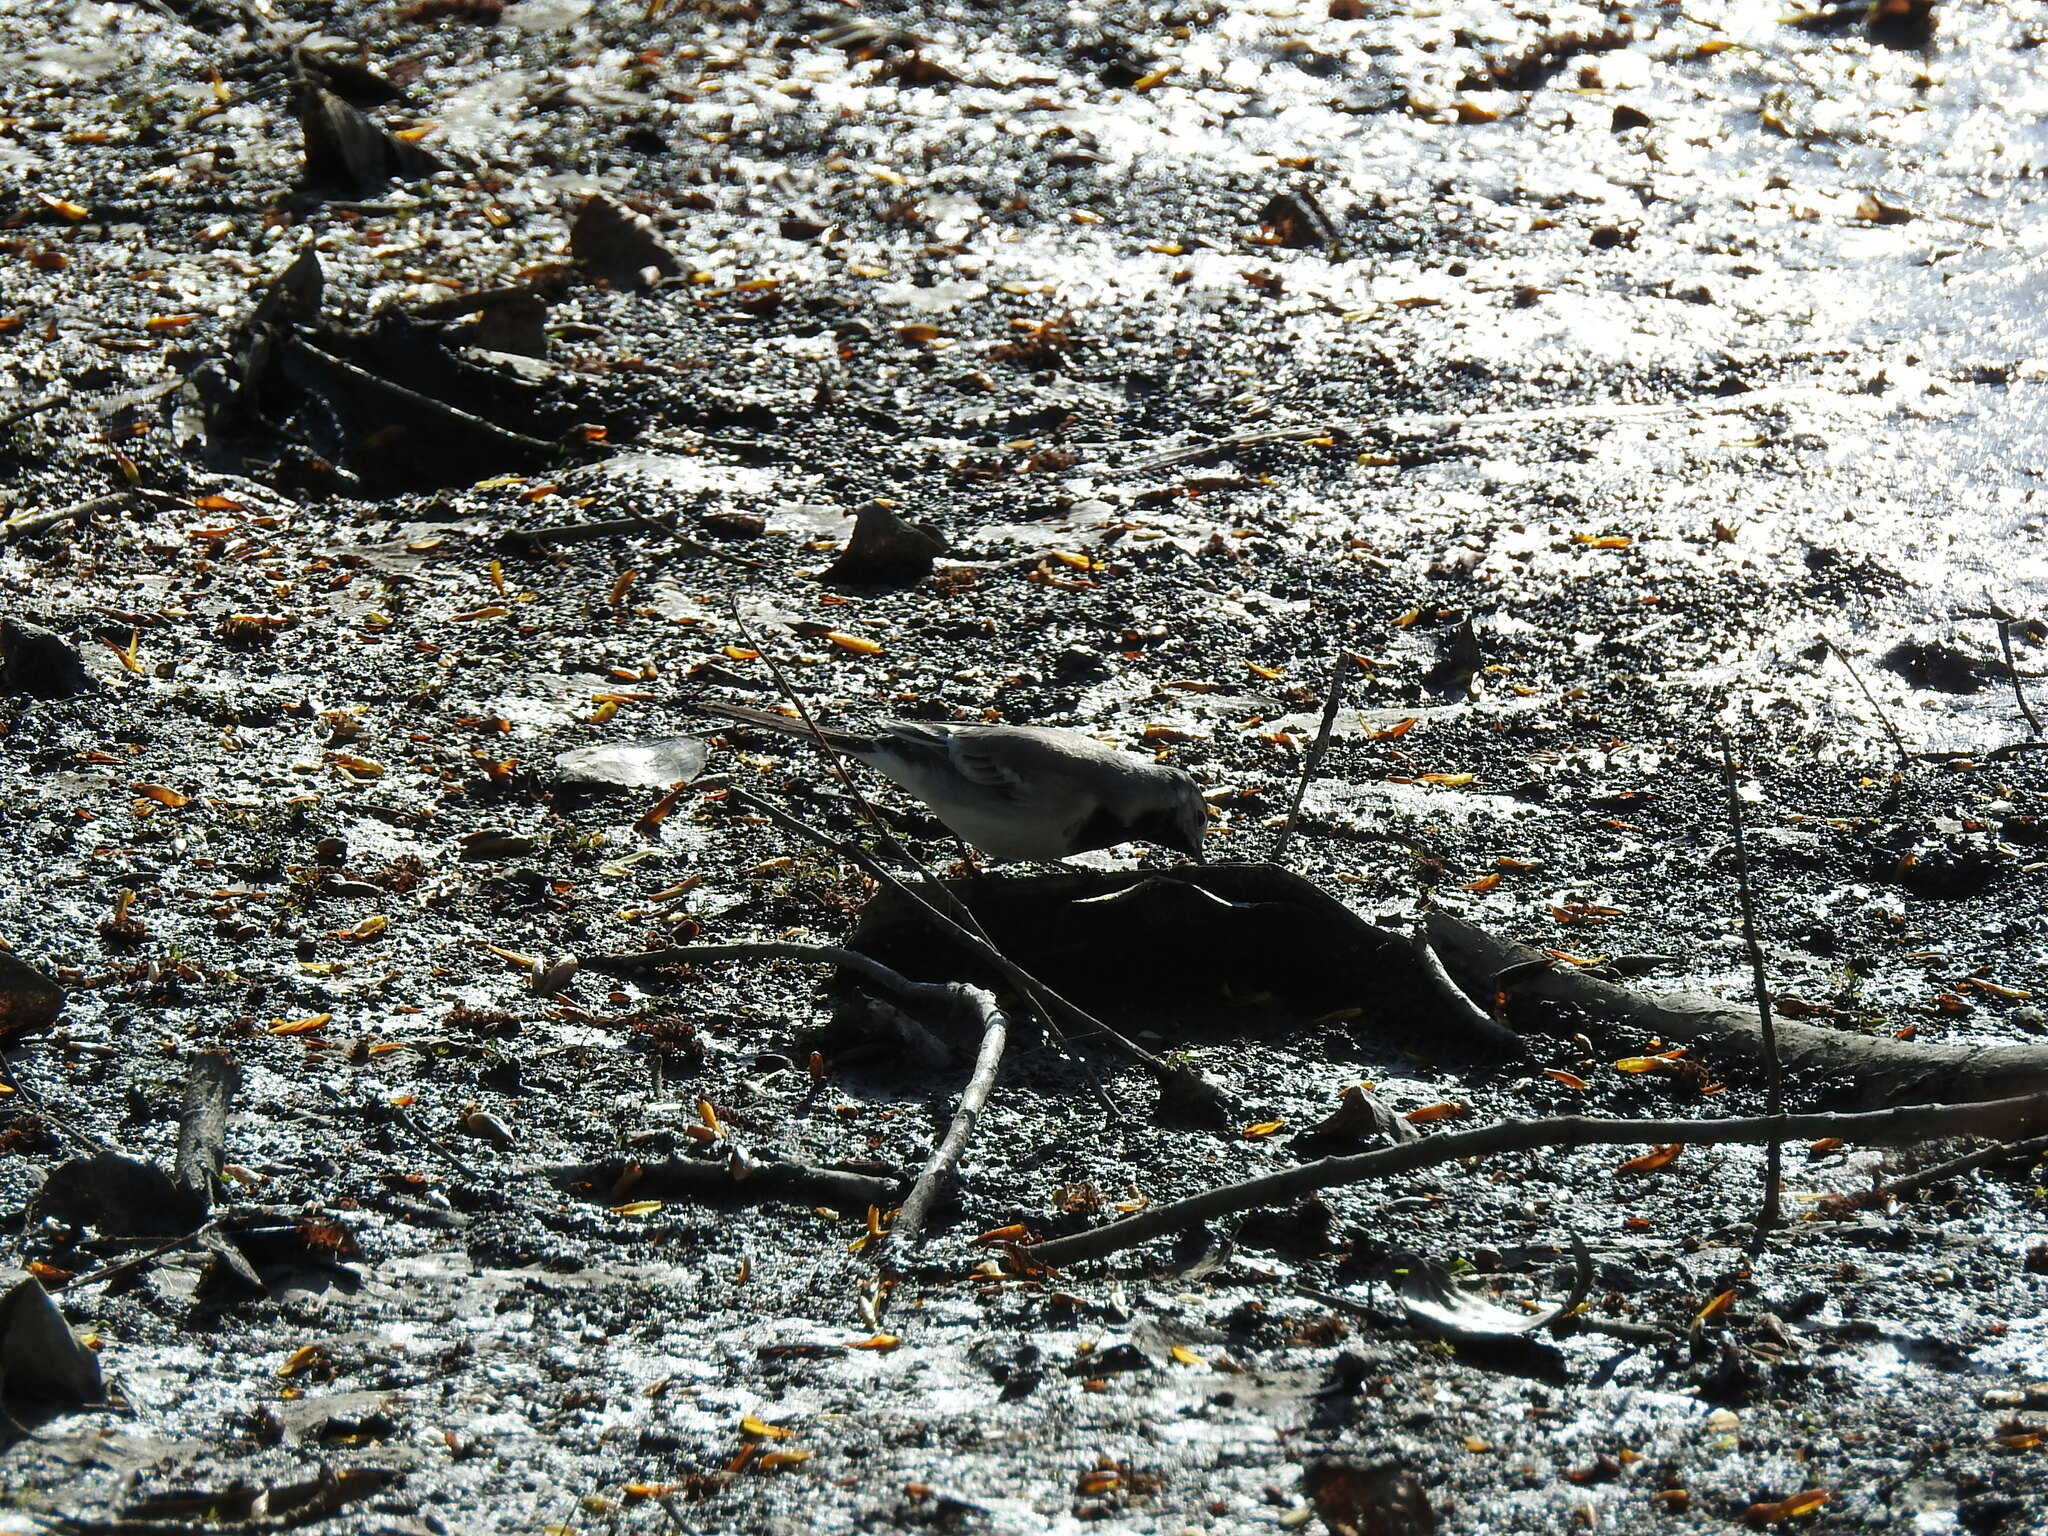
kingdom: Animalia
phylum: Chordata
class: Aves
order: Passeriformes
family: Motacillidae
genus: Motacilla
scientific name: Motacilla alba
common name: White wagtail
